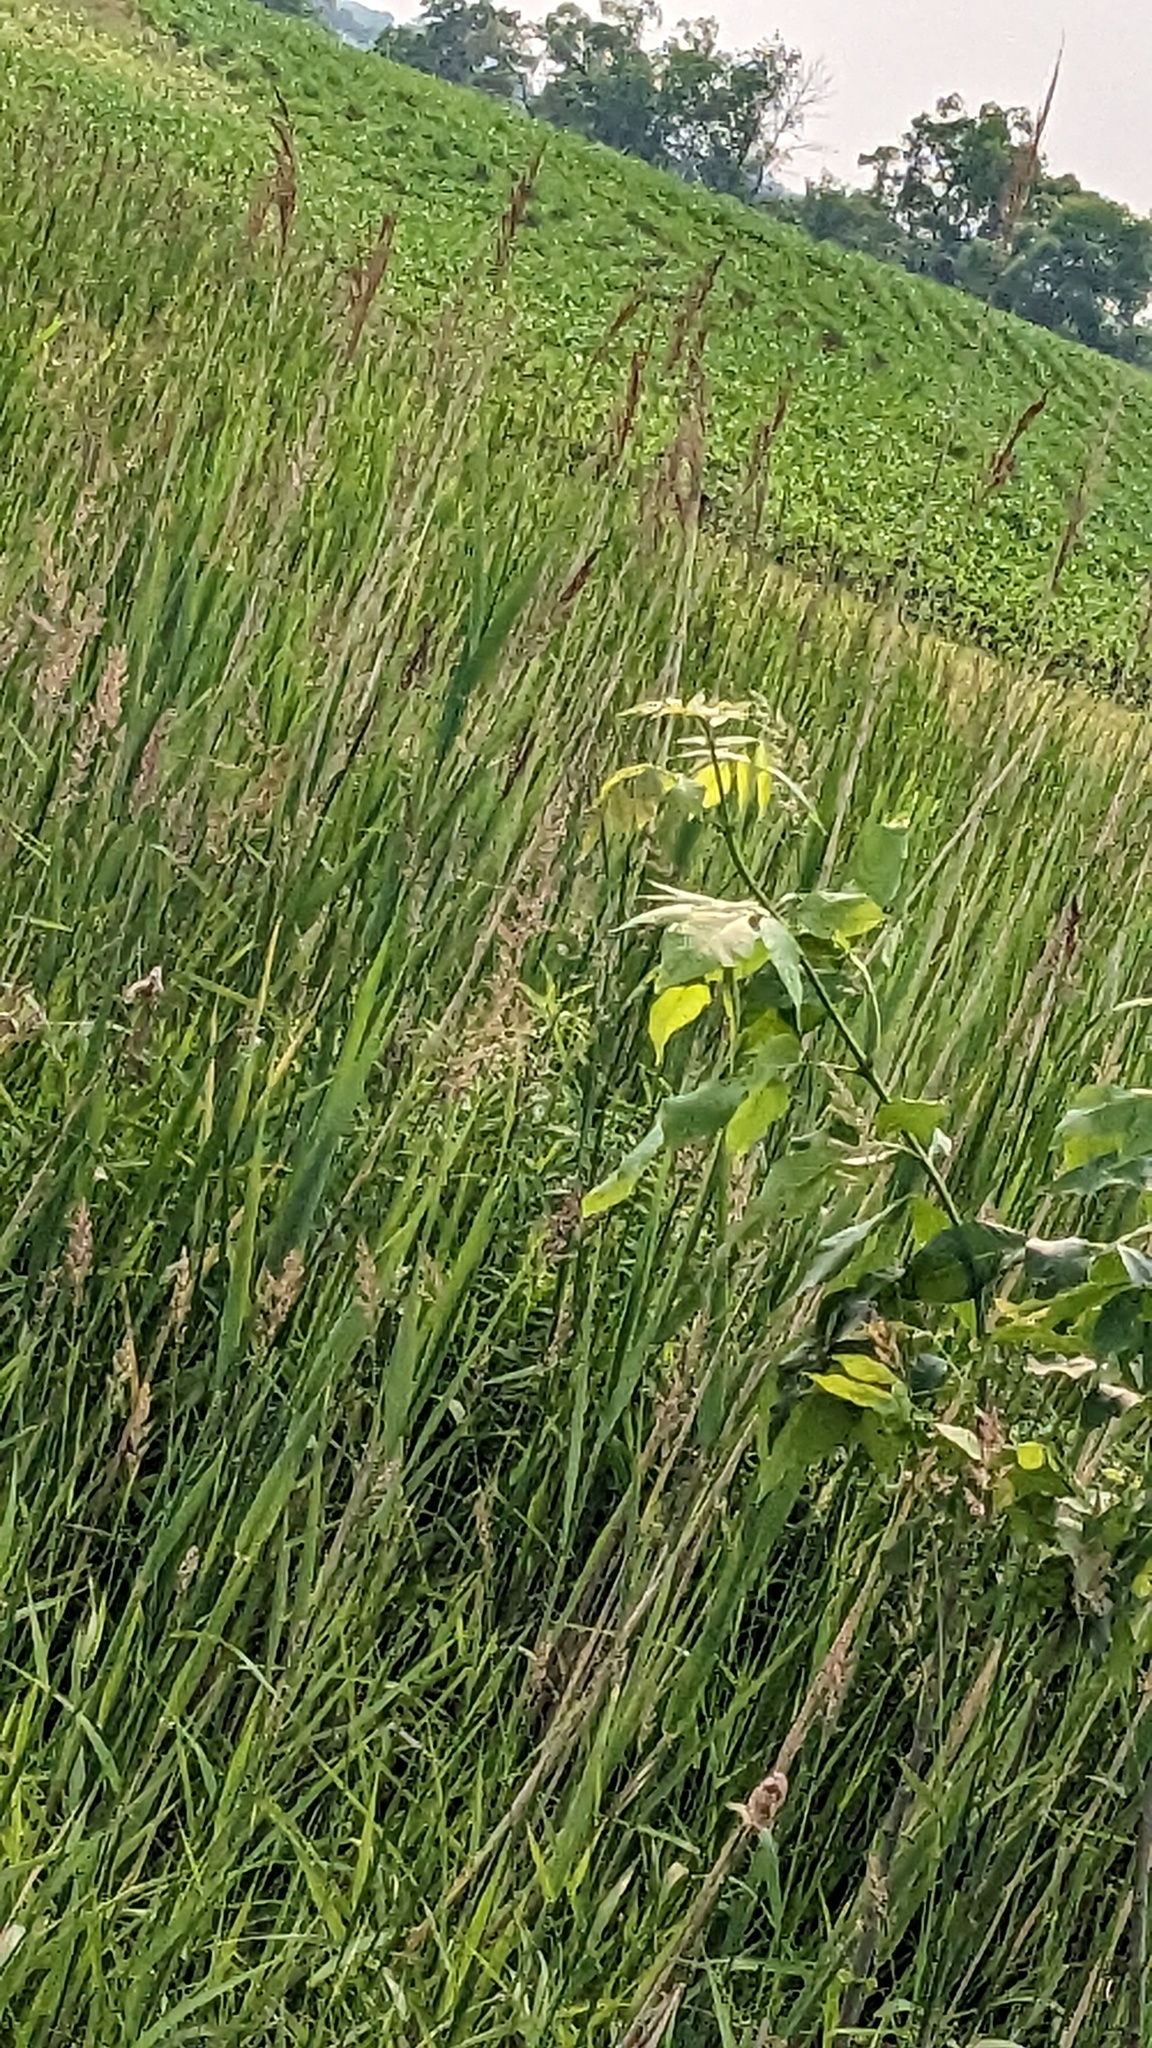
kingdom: Plantae
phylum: Tracheophyta
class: Magnoliopsida
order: Sapindales
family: Sapindaceae
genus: Acer
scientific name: Acer negundo
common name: Ashleaf maple
